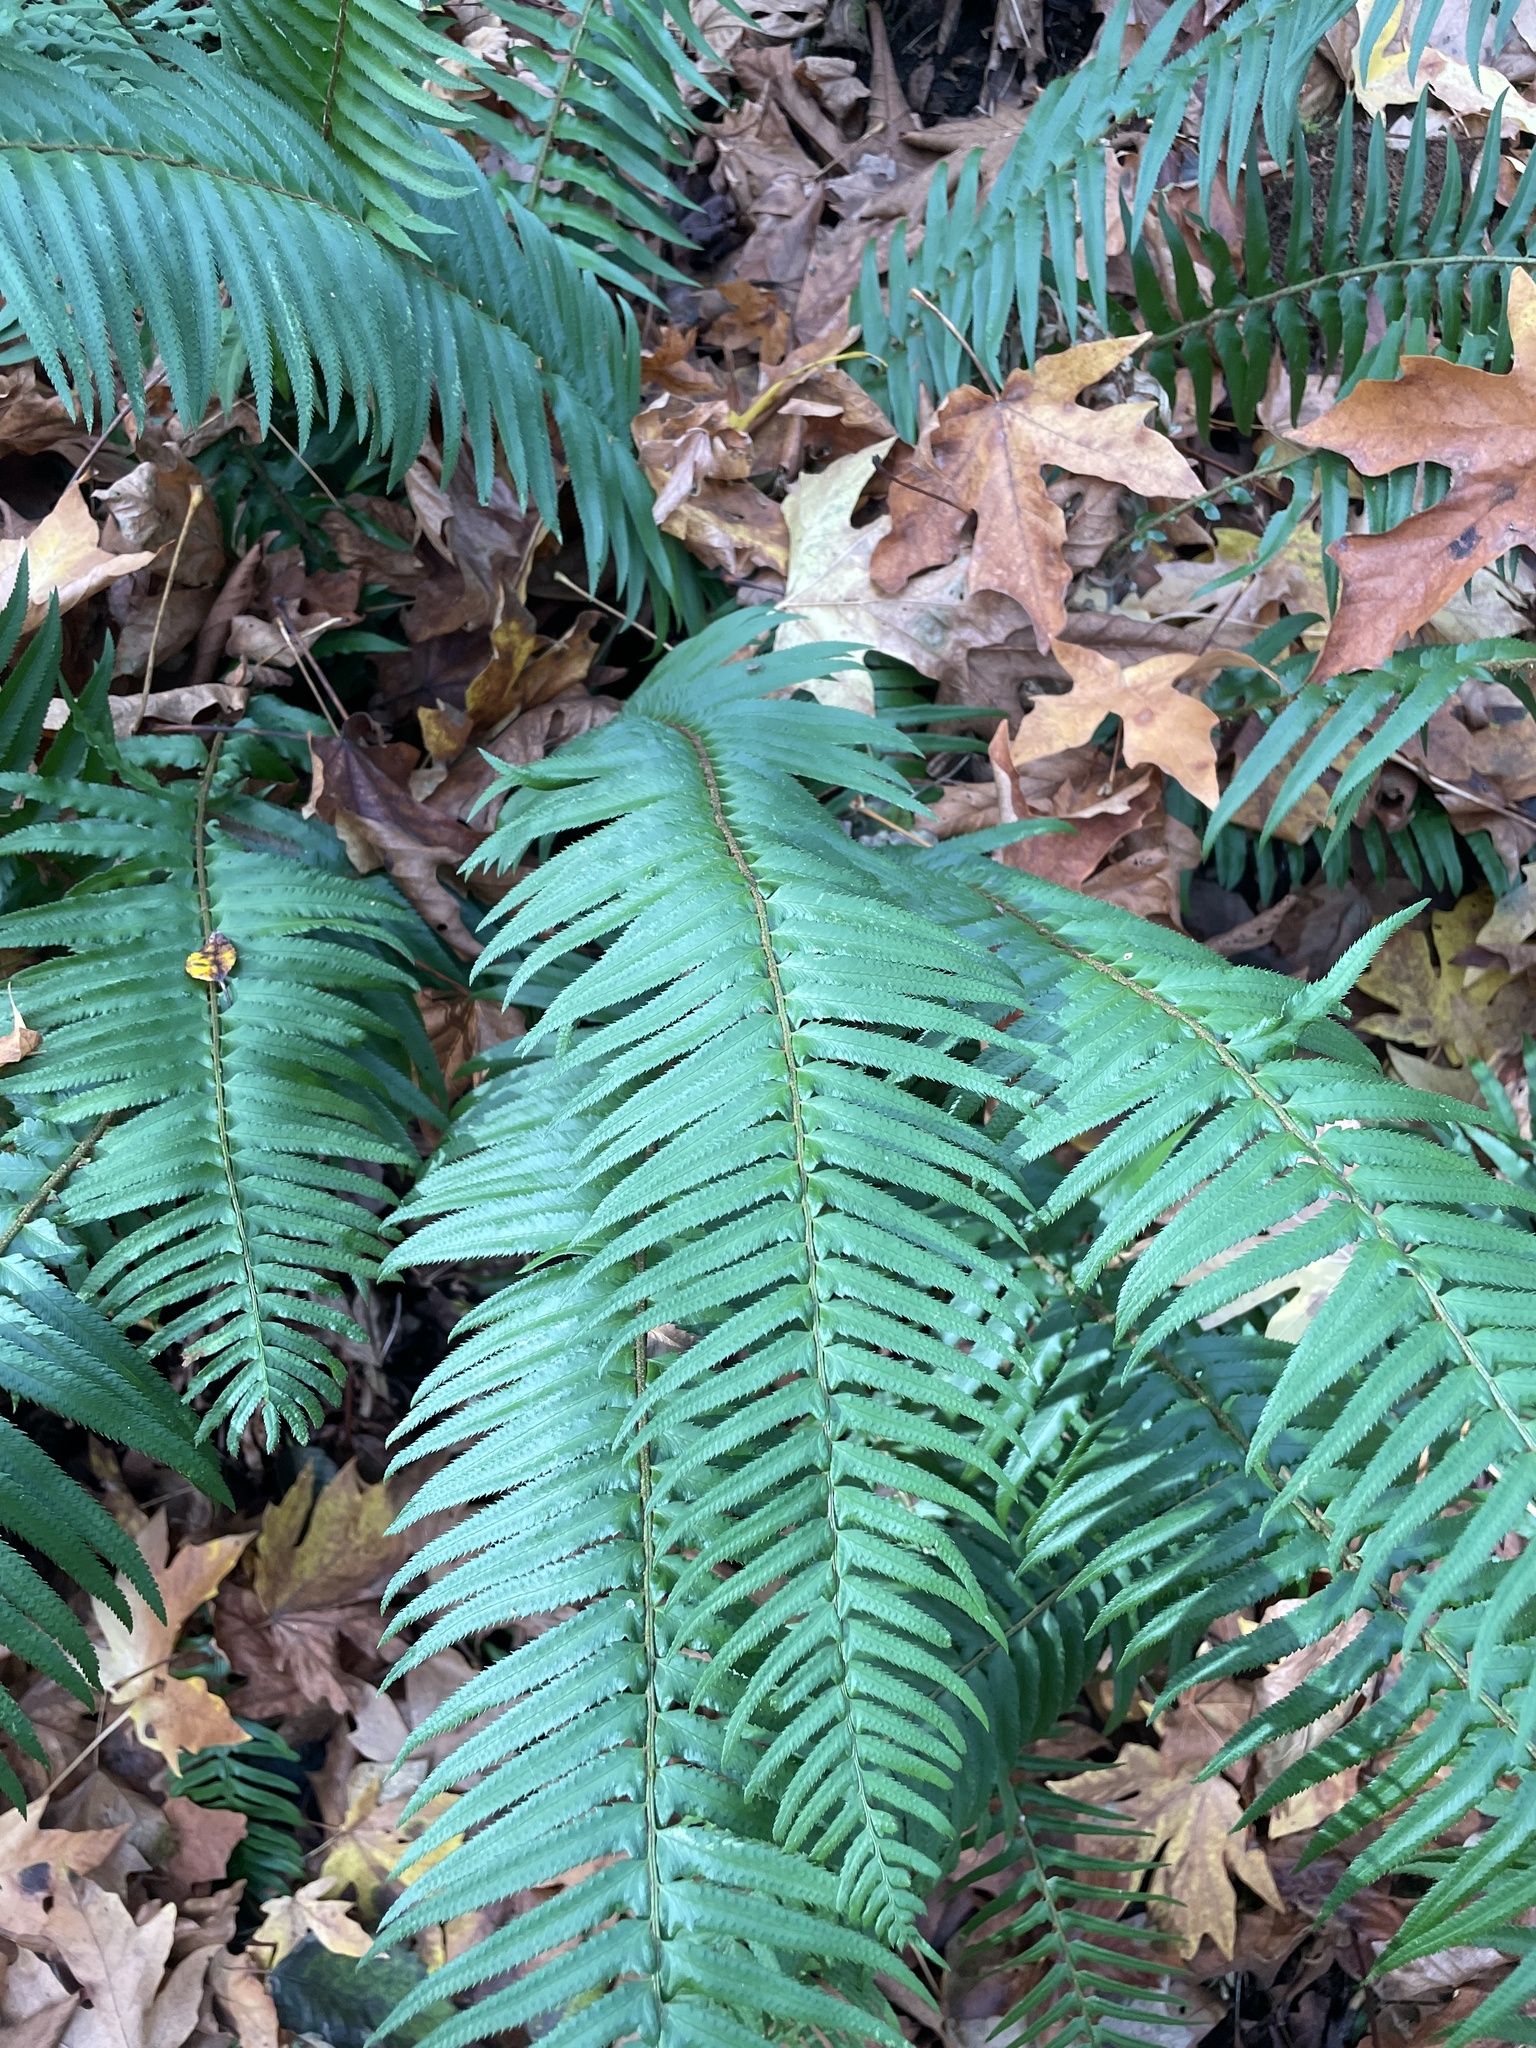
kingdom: Plantae
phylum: Tracheophyta
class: Polypodiopsida
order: Polypodiales
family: Dryopteridaceae
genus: Polystichum
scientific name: Polystichum munitum
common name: Western sword-fern
